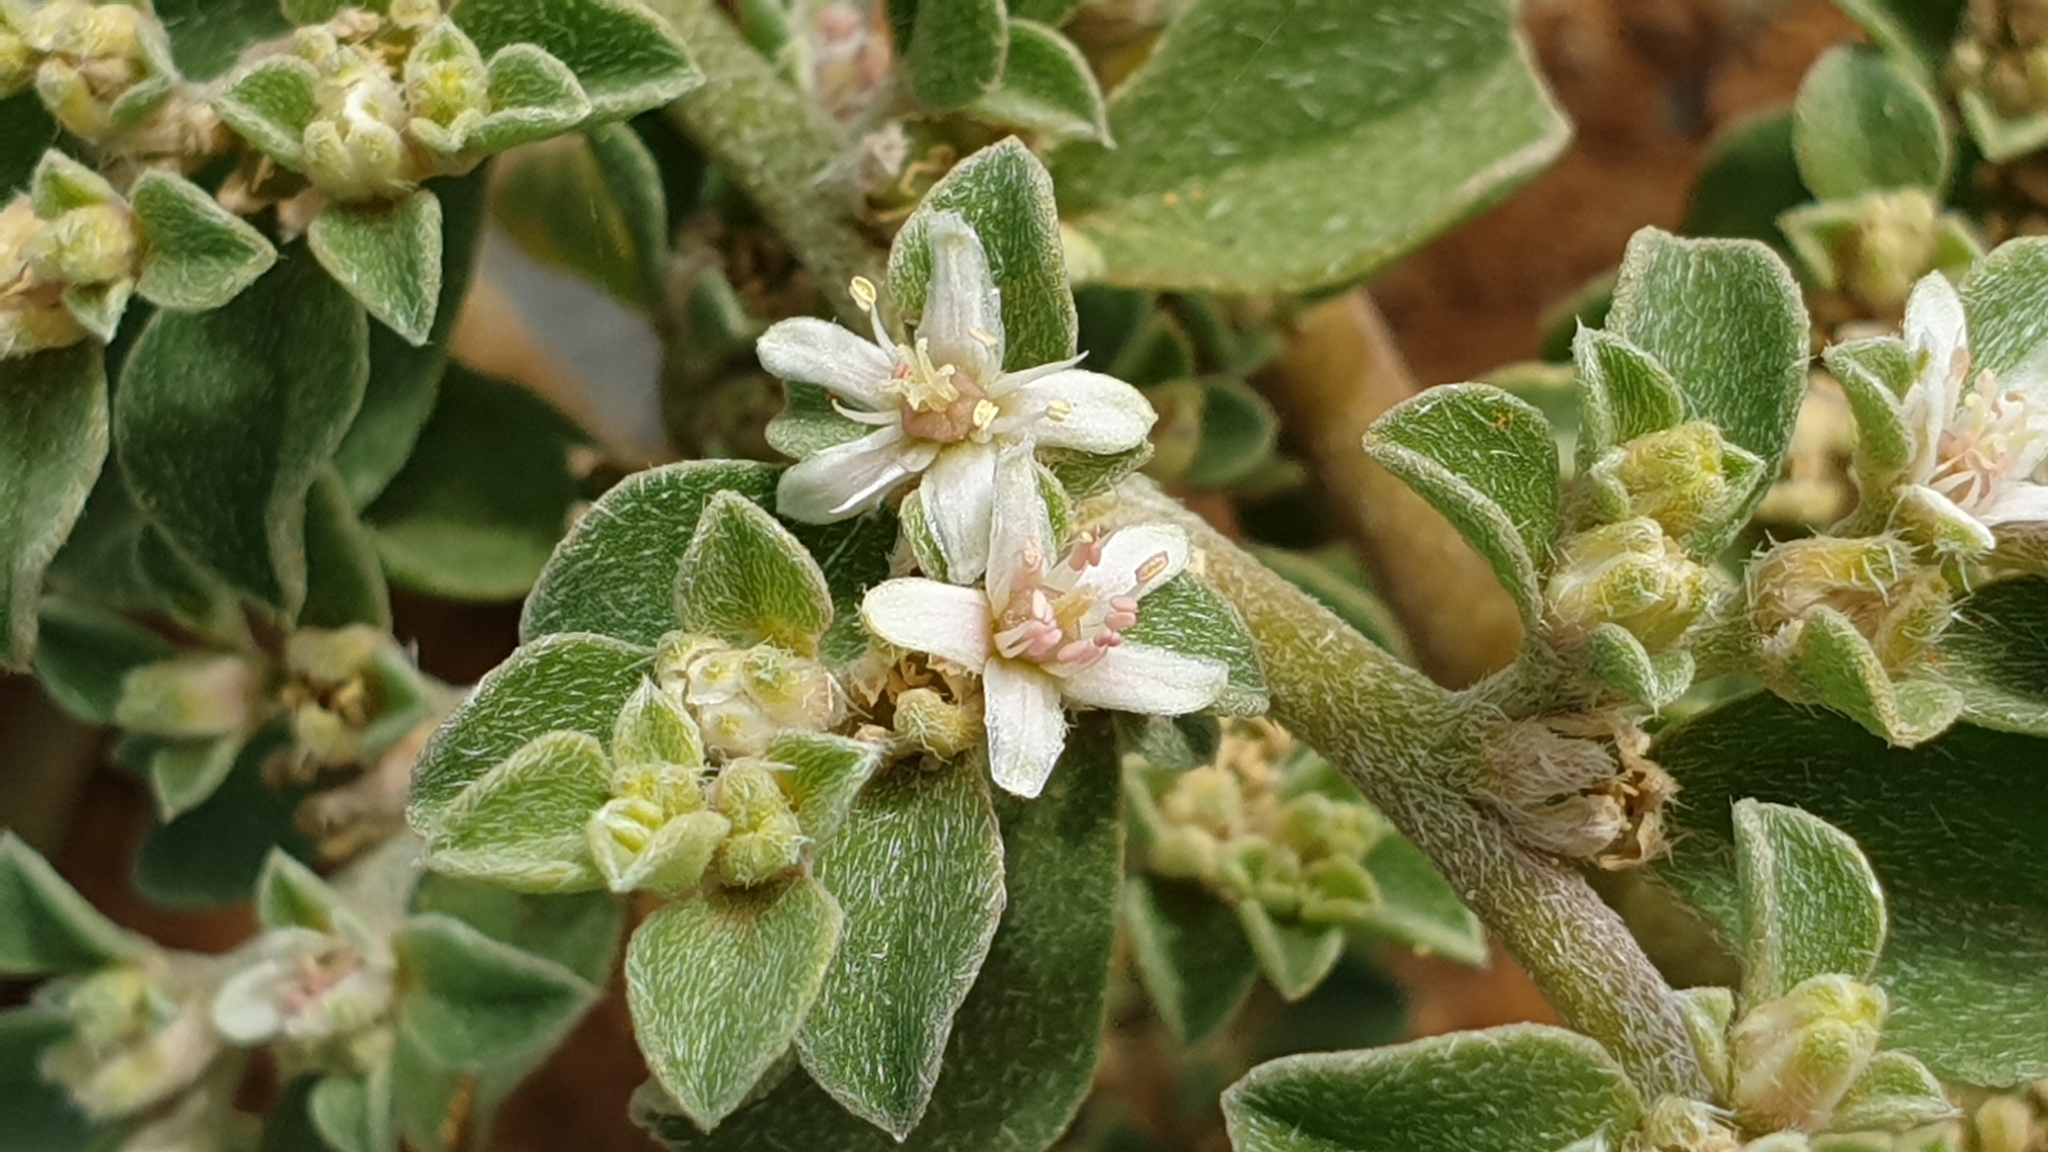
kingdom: Plantae
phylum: Tracheophyta
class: Magnoliopsida
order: Caryophyllales
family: Aizoaceae
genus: Aizoon
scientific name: Aizoon pubescens
